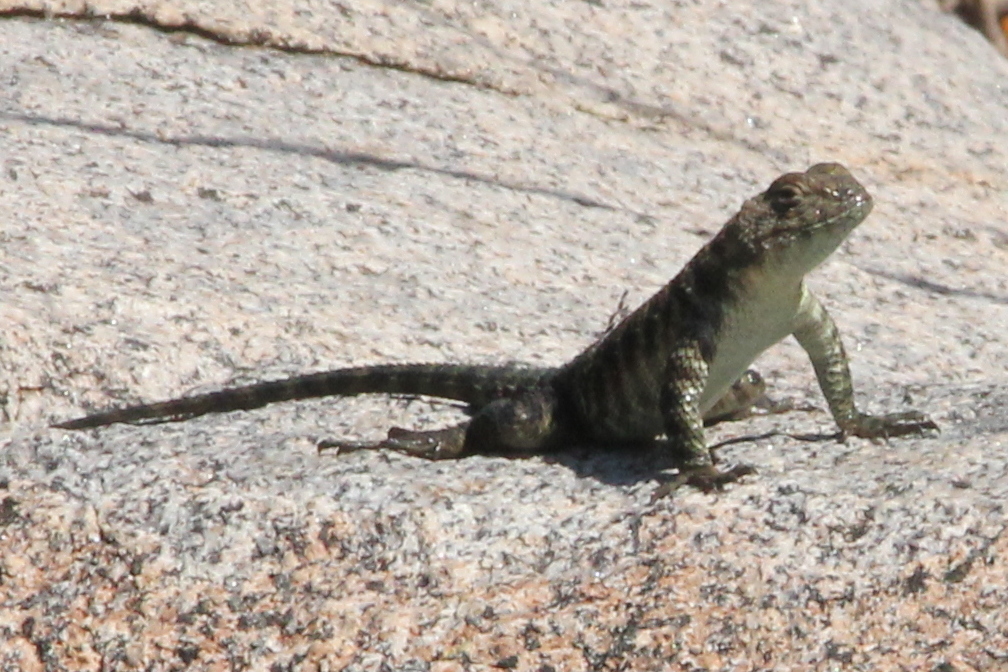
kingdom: Animalia
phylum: Chordata
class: Squamata
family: Phrynosomatidae
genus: Sceloporus
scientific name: Sceloporus orcutti
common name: Granite spiny lizard
